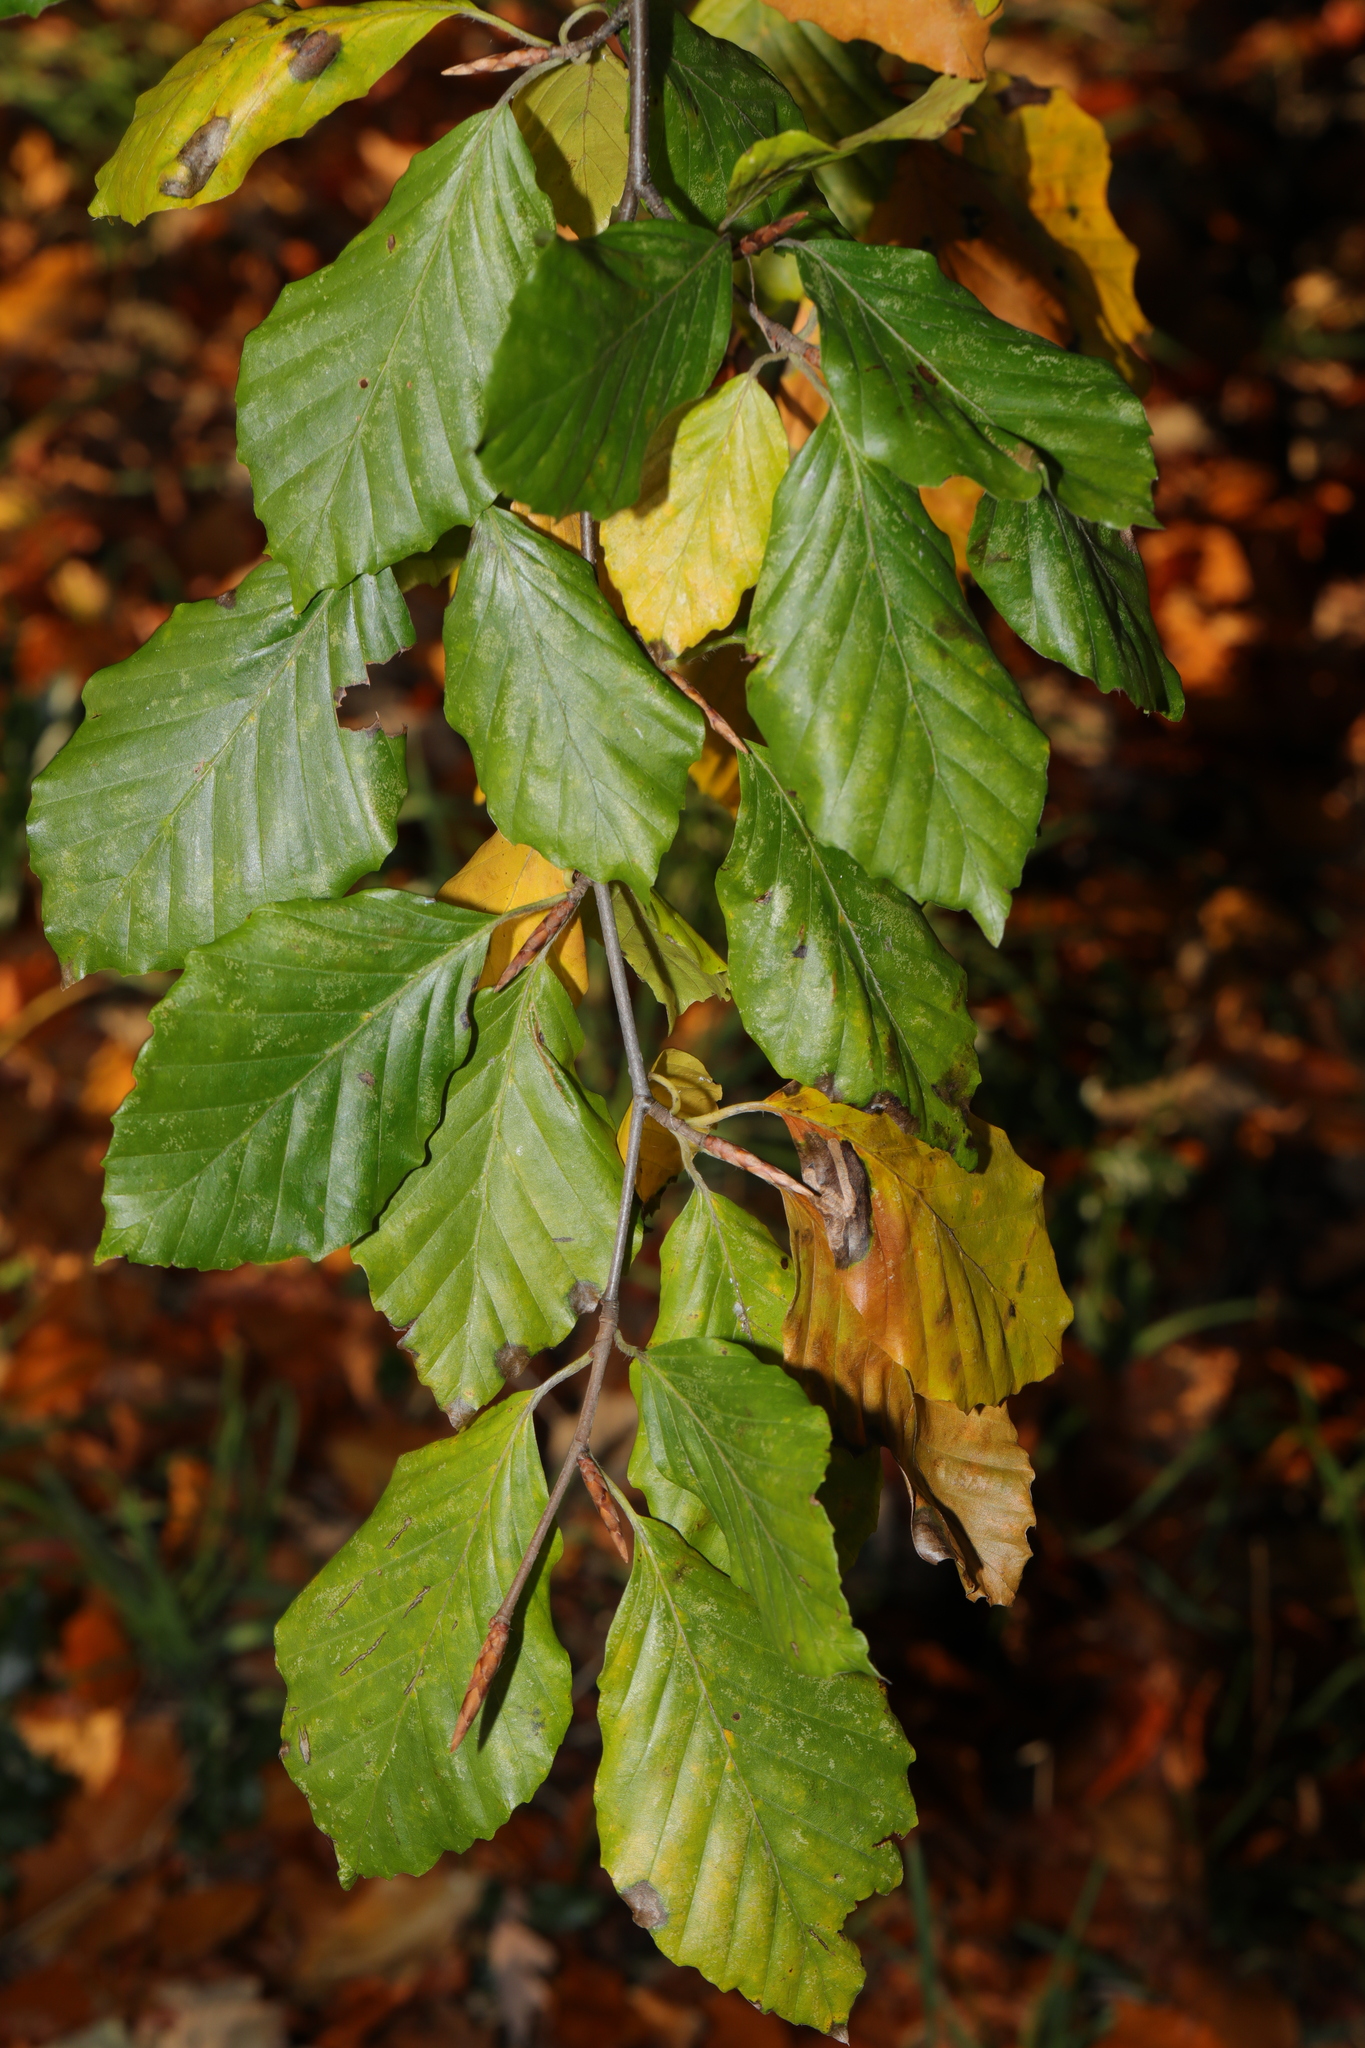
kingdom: Plantae
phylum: Tracheophyta
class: Magnoliopsida
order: Fagales
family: Fagaceae
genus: Fagus
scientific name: Fagus sylvatica
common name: Beech
